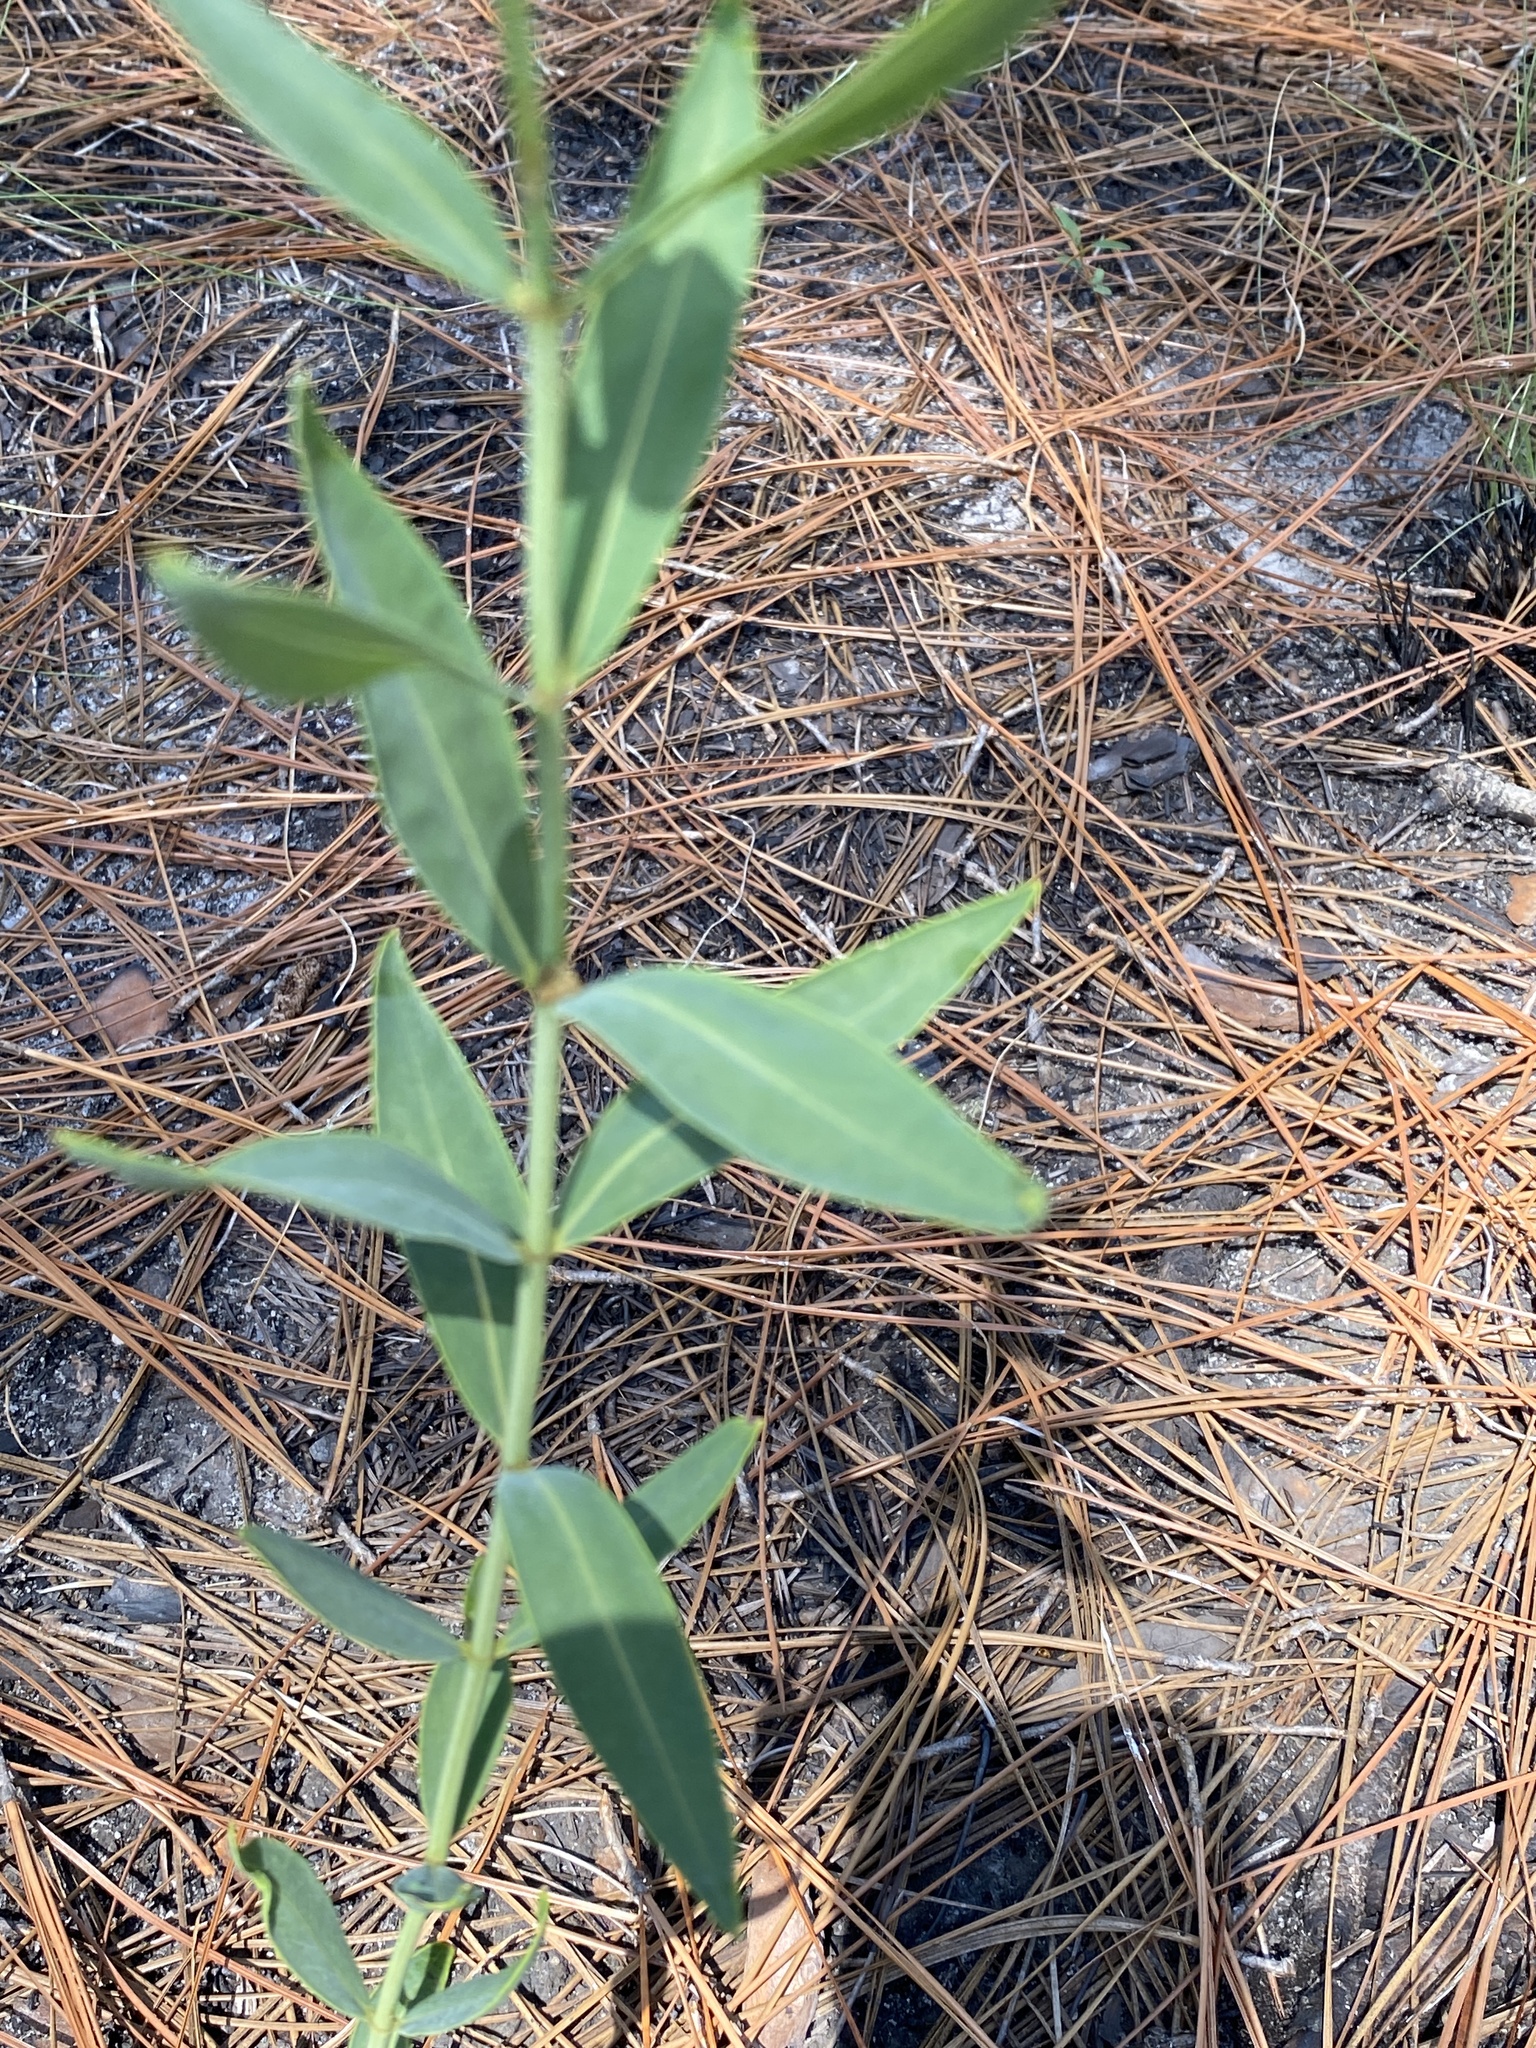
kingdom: Plantae
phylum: Tracheophyta
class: Magnoliopsida
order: Myrtales
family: Melastomataceae
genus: Rhexia
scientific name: Rhexia alifanus
